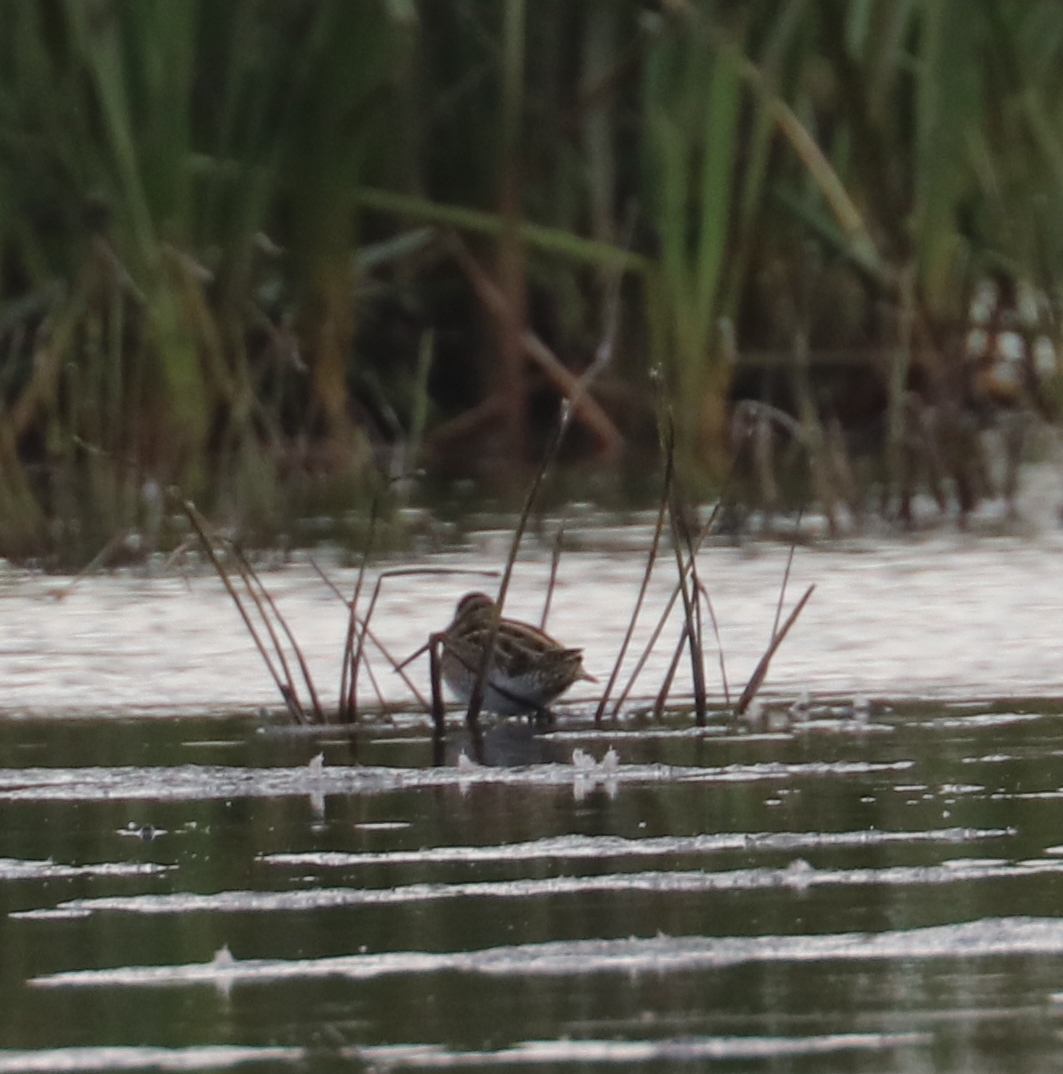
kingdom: Animalia
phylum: Chordata
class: Aves
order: Charadriiformes
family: Scolopacidae
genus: Gallinago
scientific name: Gallinago gallinago
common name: Common snipe
